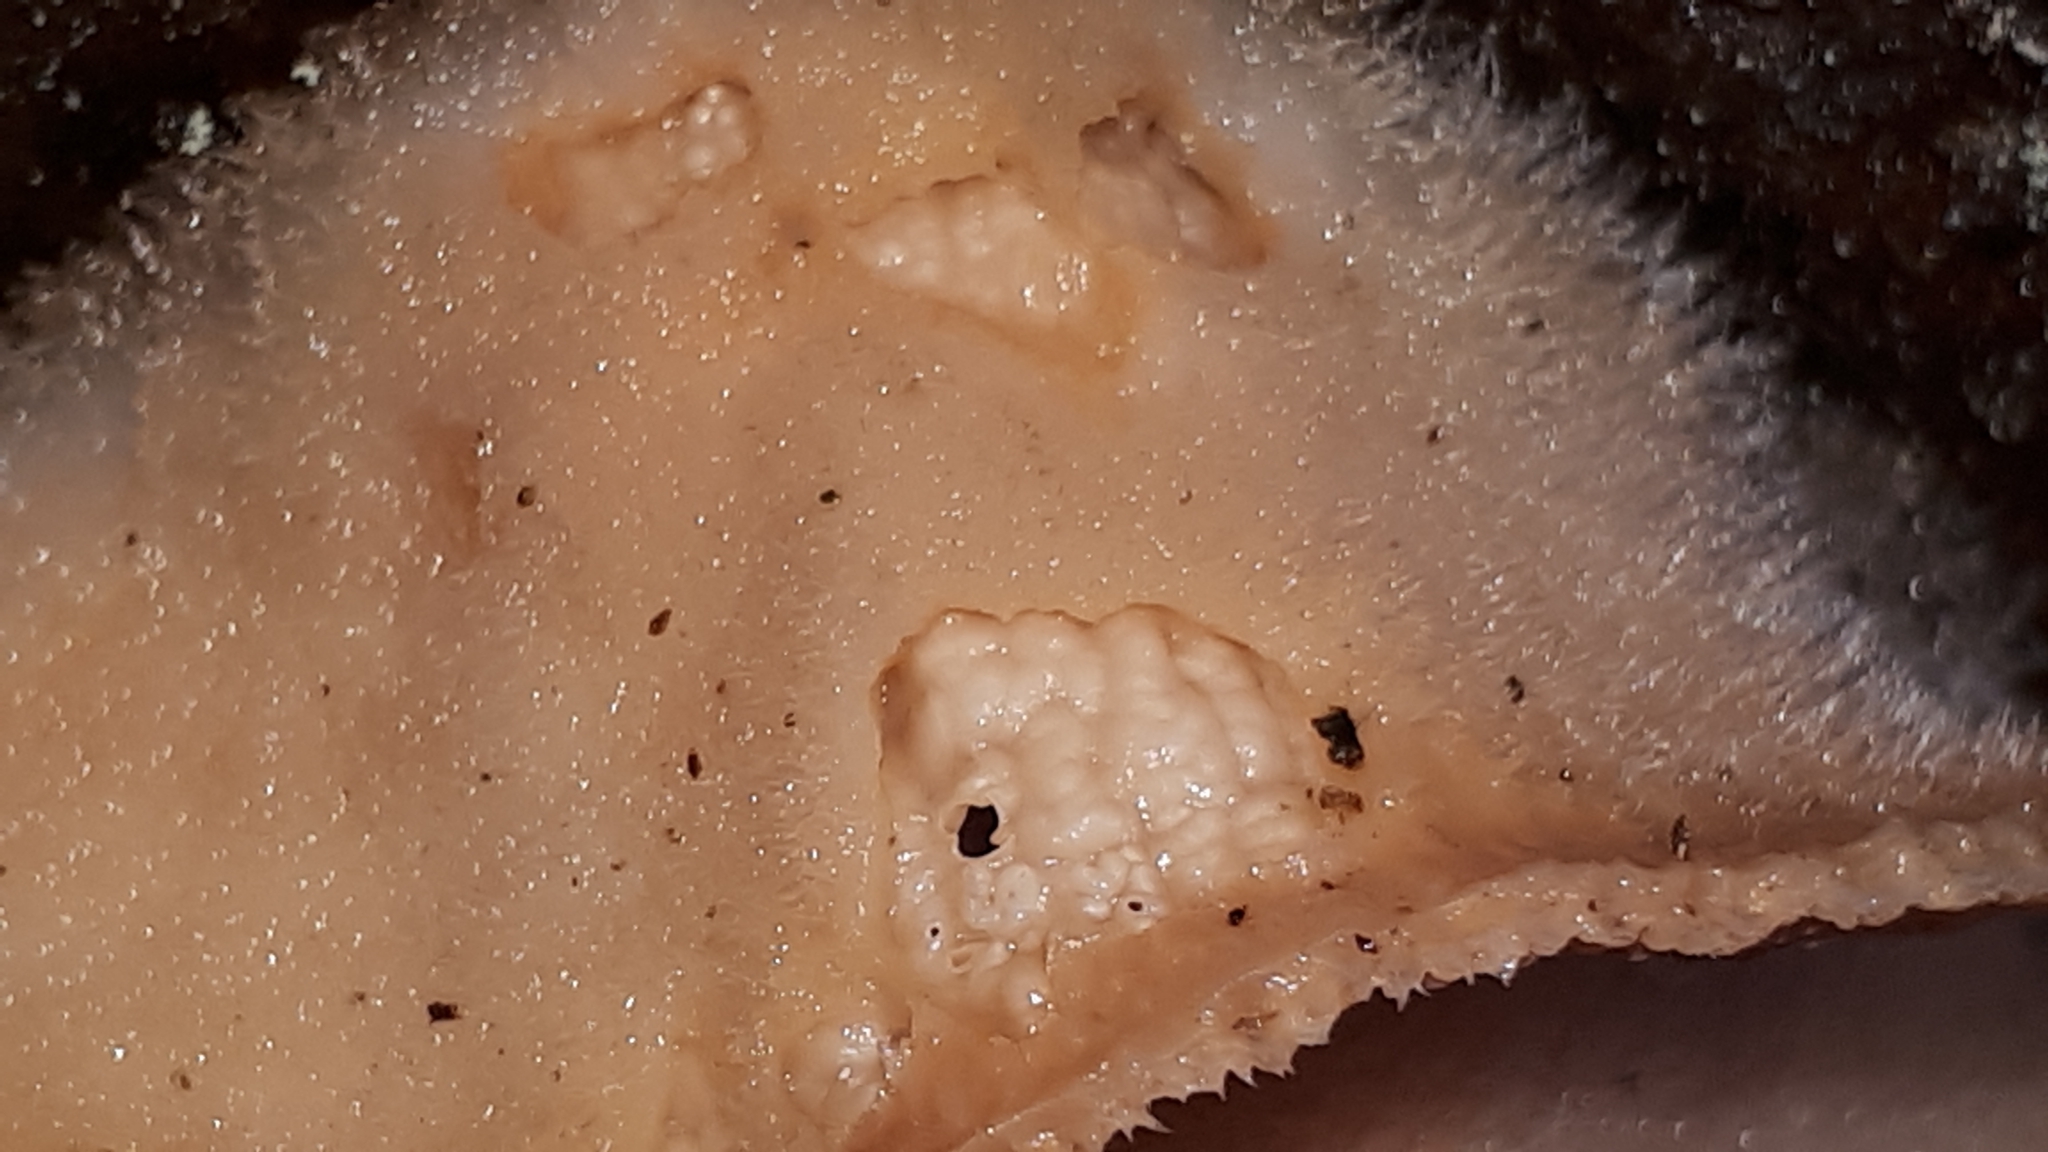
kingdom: Fungi
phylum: Basidiomycota
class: Agaricomycetes
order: Polyporales
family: Meruliaceae
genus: Phlebia
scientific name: Phlebia tremellosa
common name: Jelly rot
